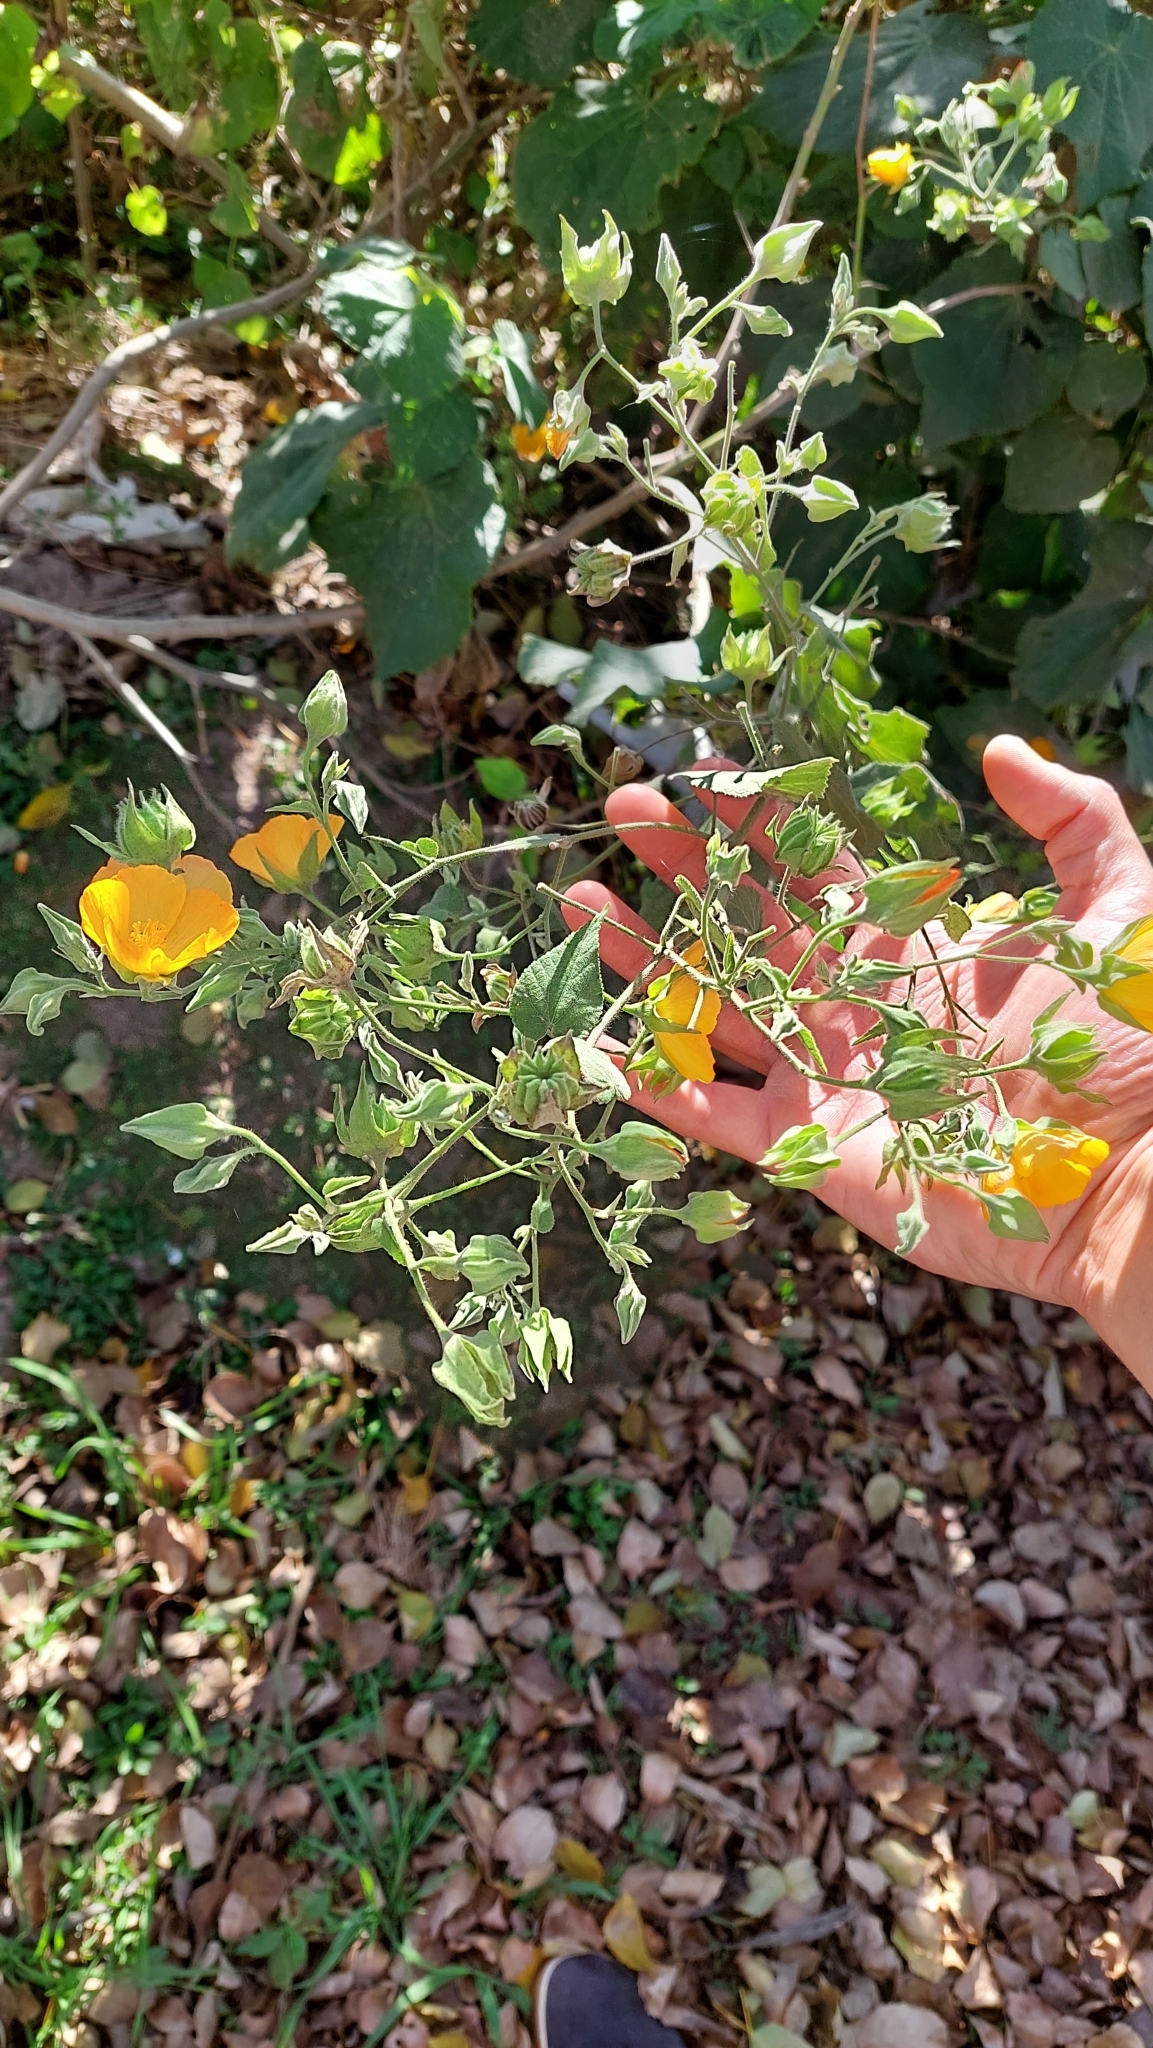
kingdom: Plantae
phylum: Tracheophyta
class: Magnoliopsida
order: Malvales
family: Malvaceae
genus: Abutilon
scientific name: Abutilon grandifolium
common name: Hairy abutilon
